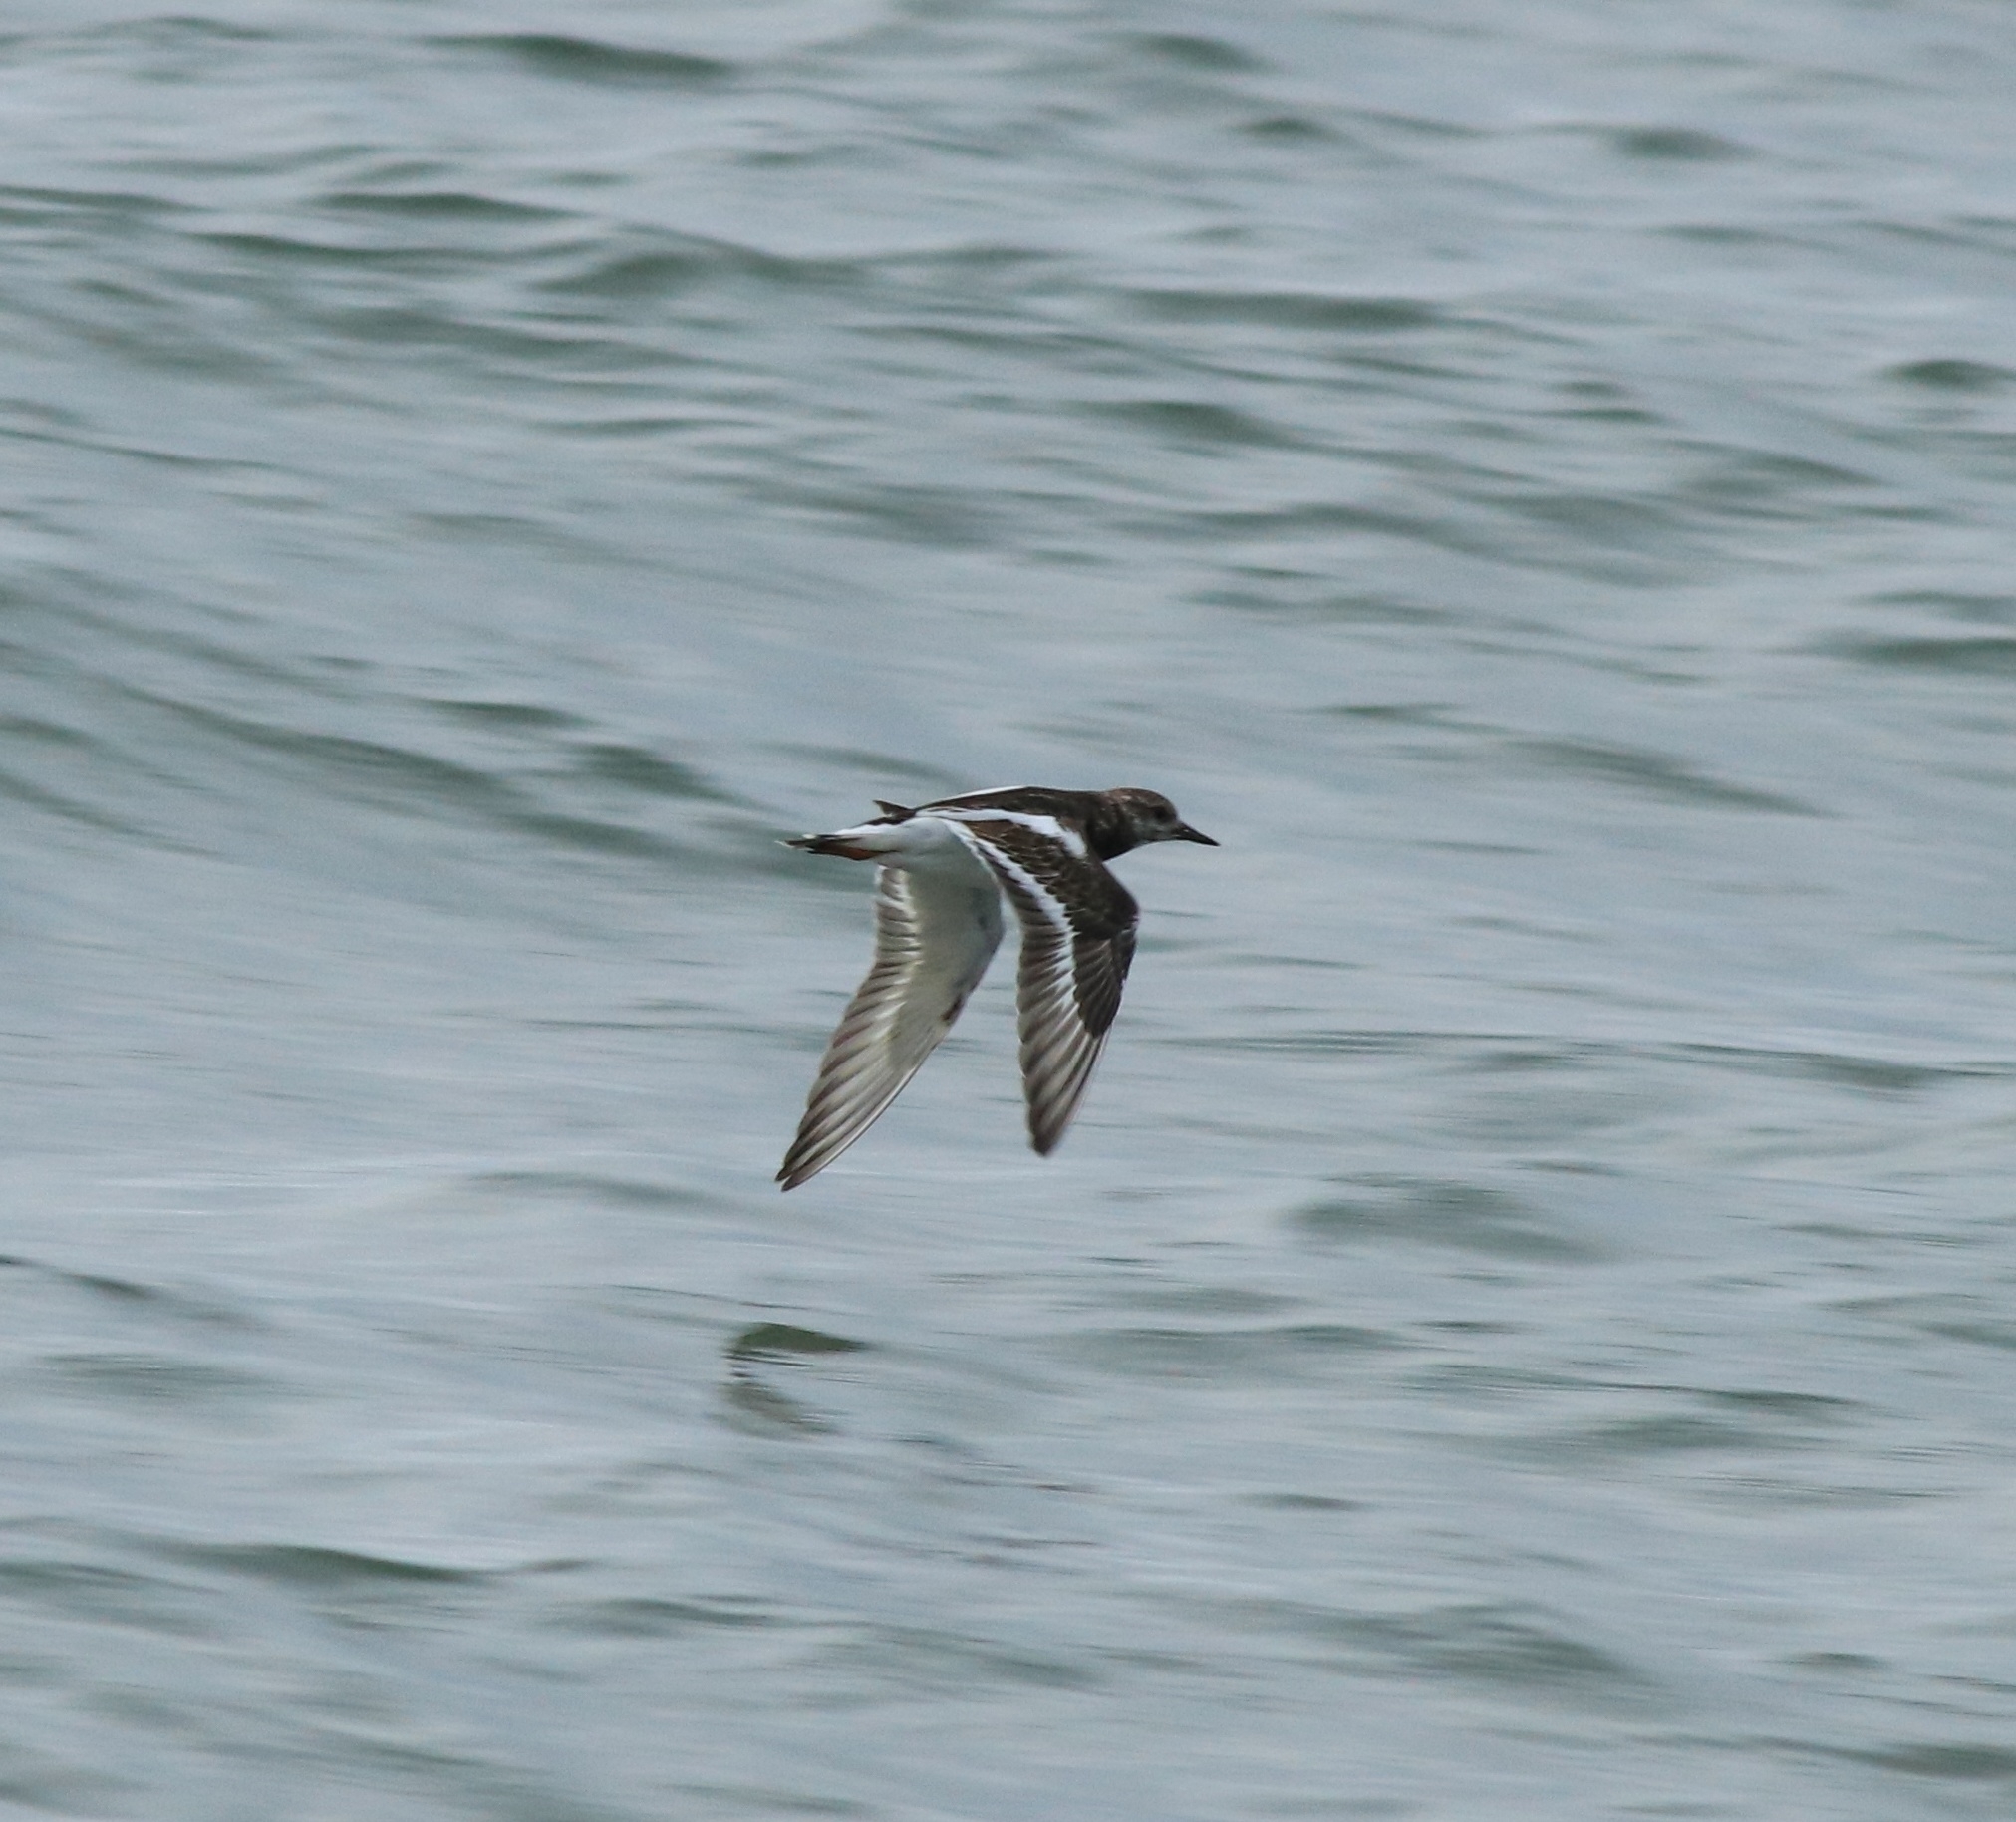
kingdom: Animalia
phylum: Chordata
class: Aves
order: Charadriiformes
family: Scolopacidae
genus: Arenaria
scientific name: Arenaria interpres
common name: Ruddy turnstone
